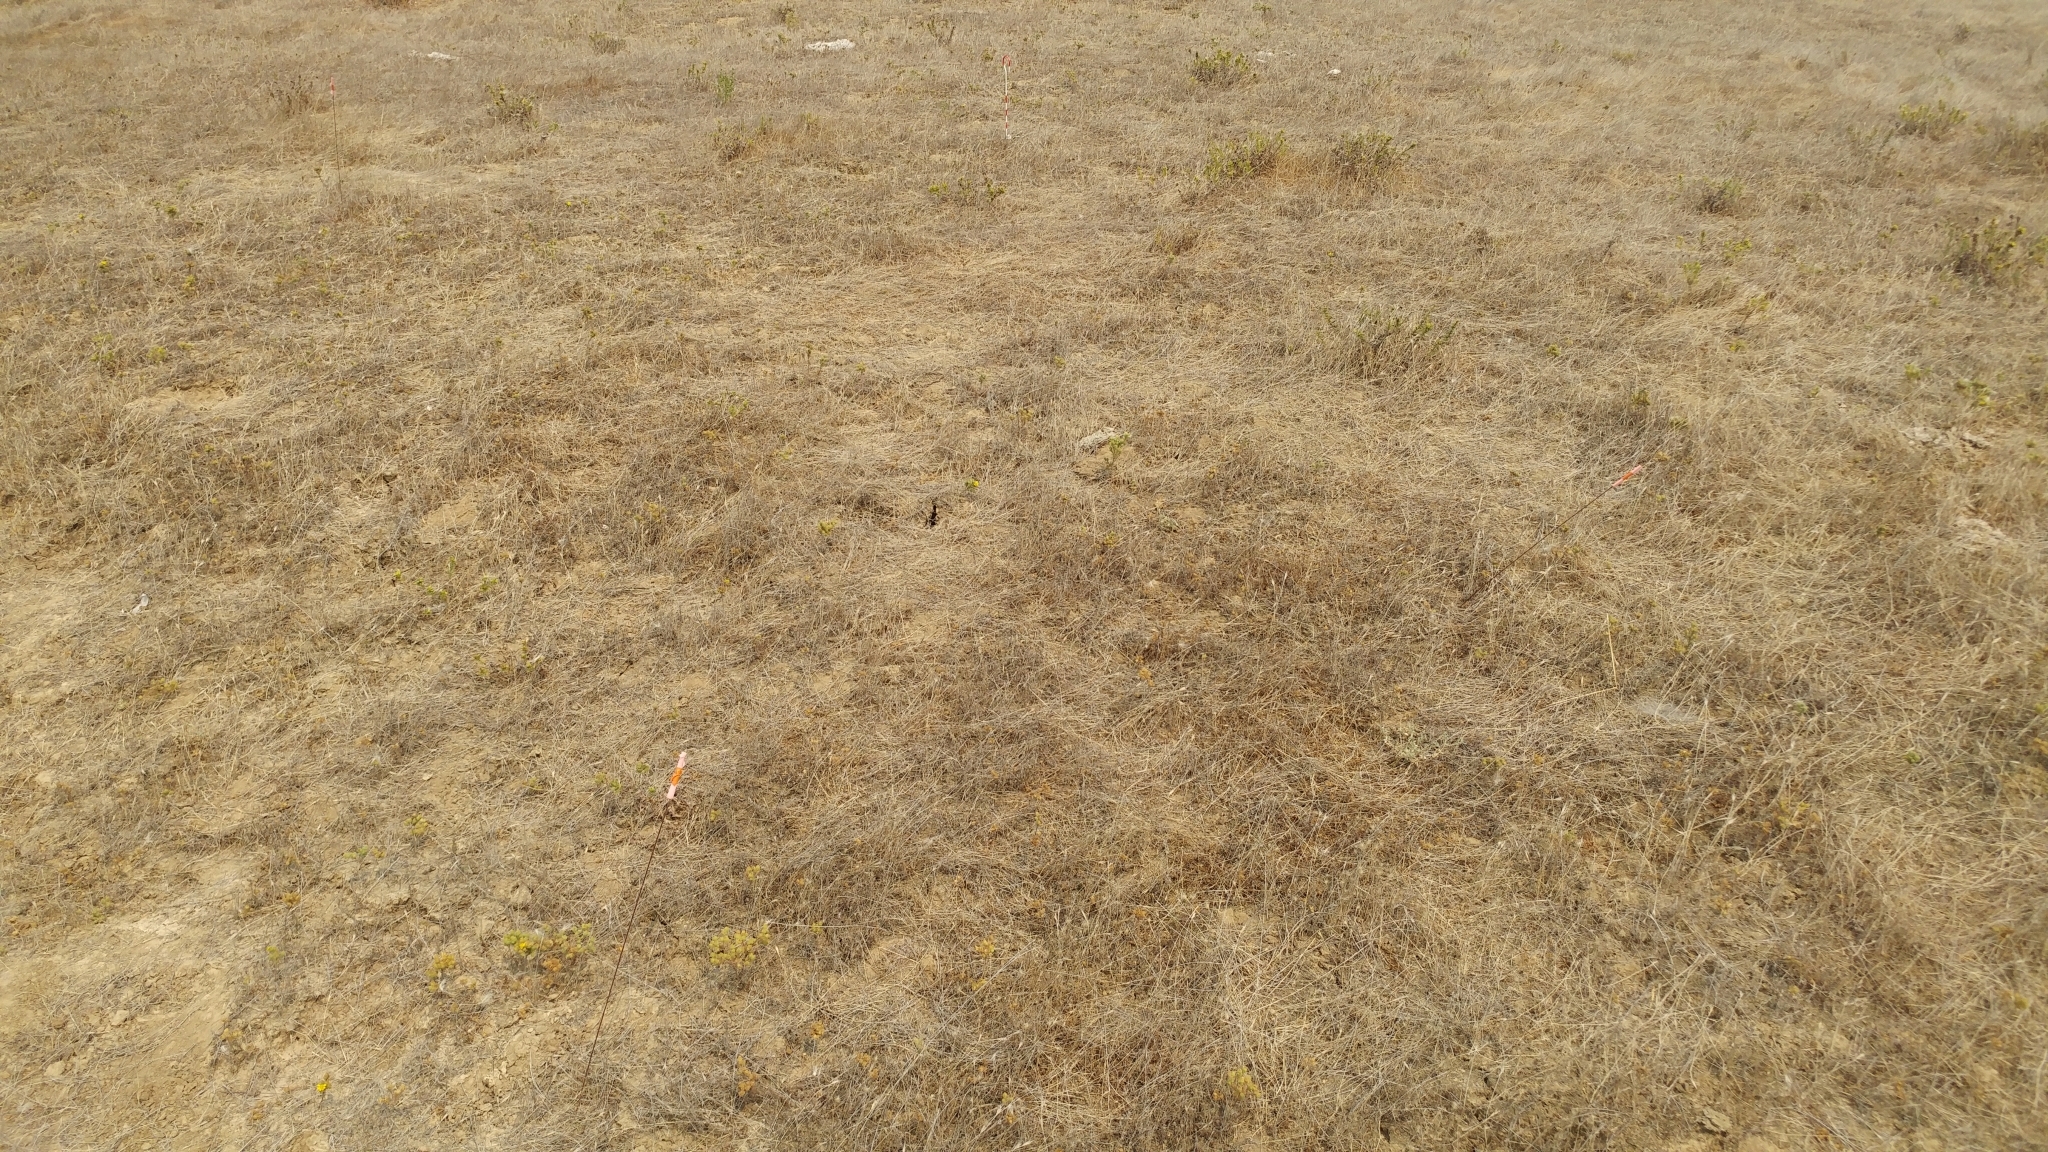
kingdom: Plantae
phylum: Tracheophyta
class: Magnoliopsida
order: Asterales
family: Asteraceae
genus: Deinandra
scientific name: Deinandra increscens
